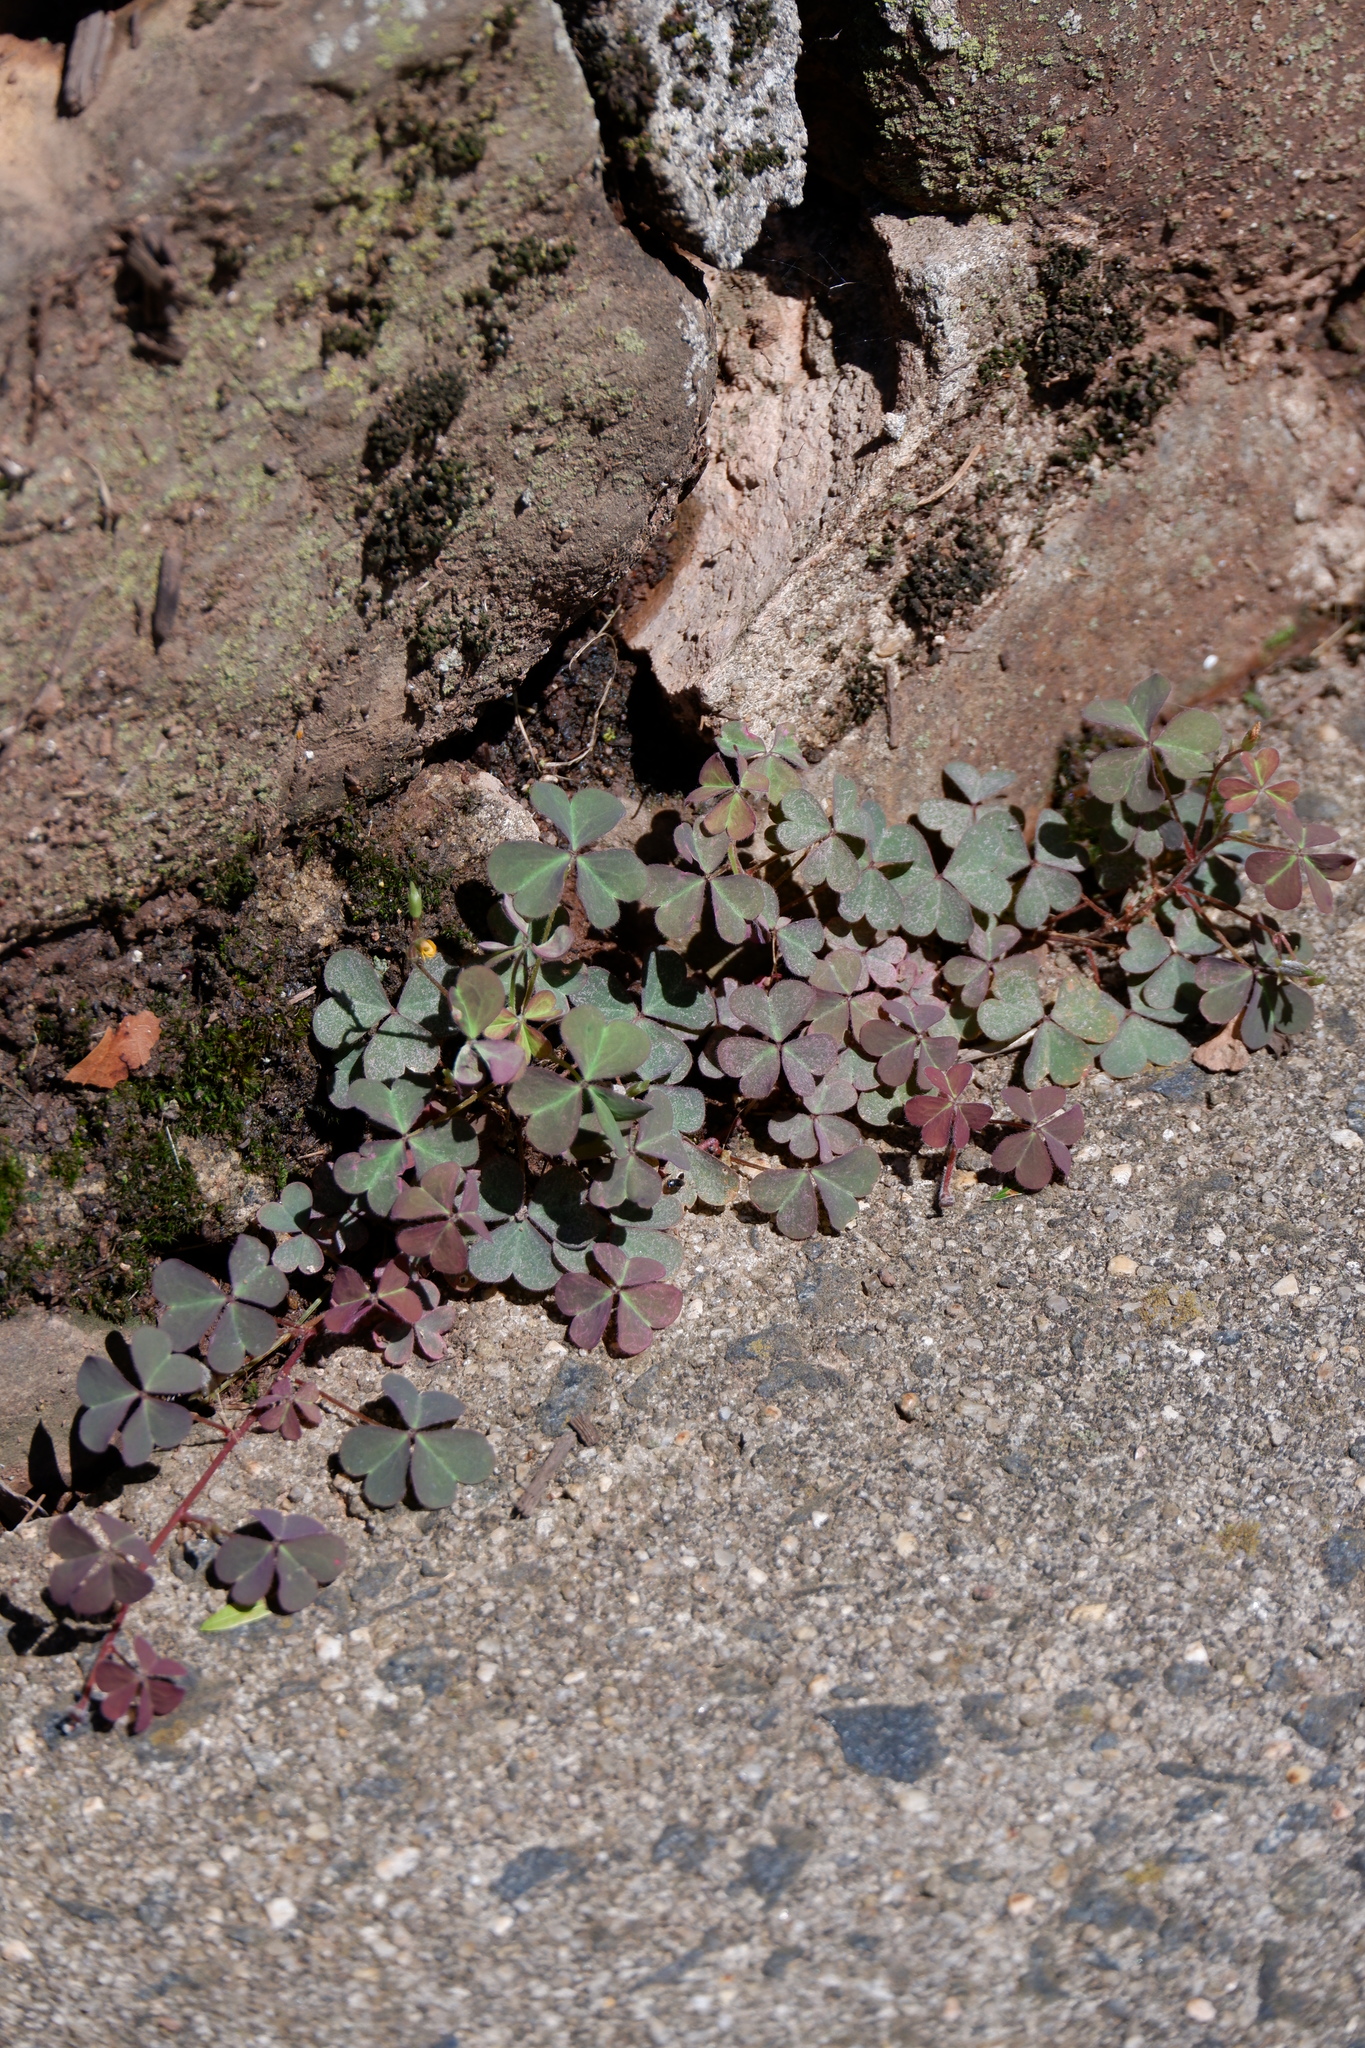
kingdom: Plantae
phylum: Tracheophyta
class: Magnoliopsida
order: Oxalidales
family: Oxalidaceae
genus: Oxalis
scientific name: Oxalis corniculata
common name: Procumbent yellow-sorrel
